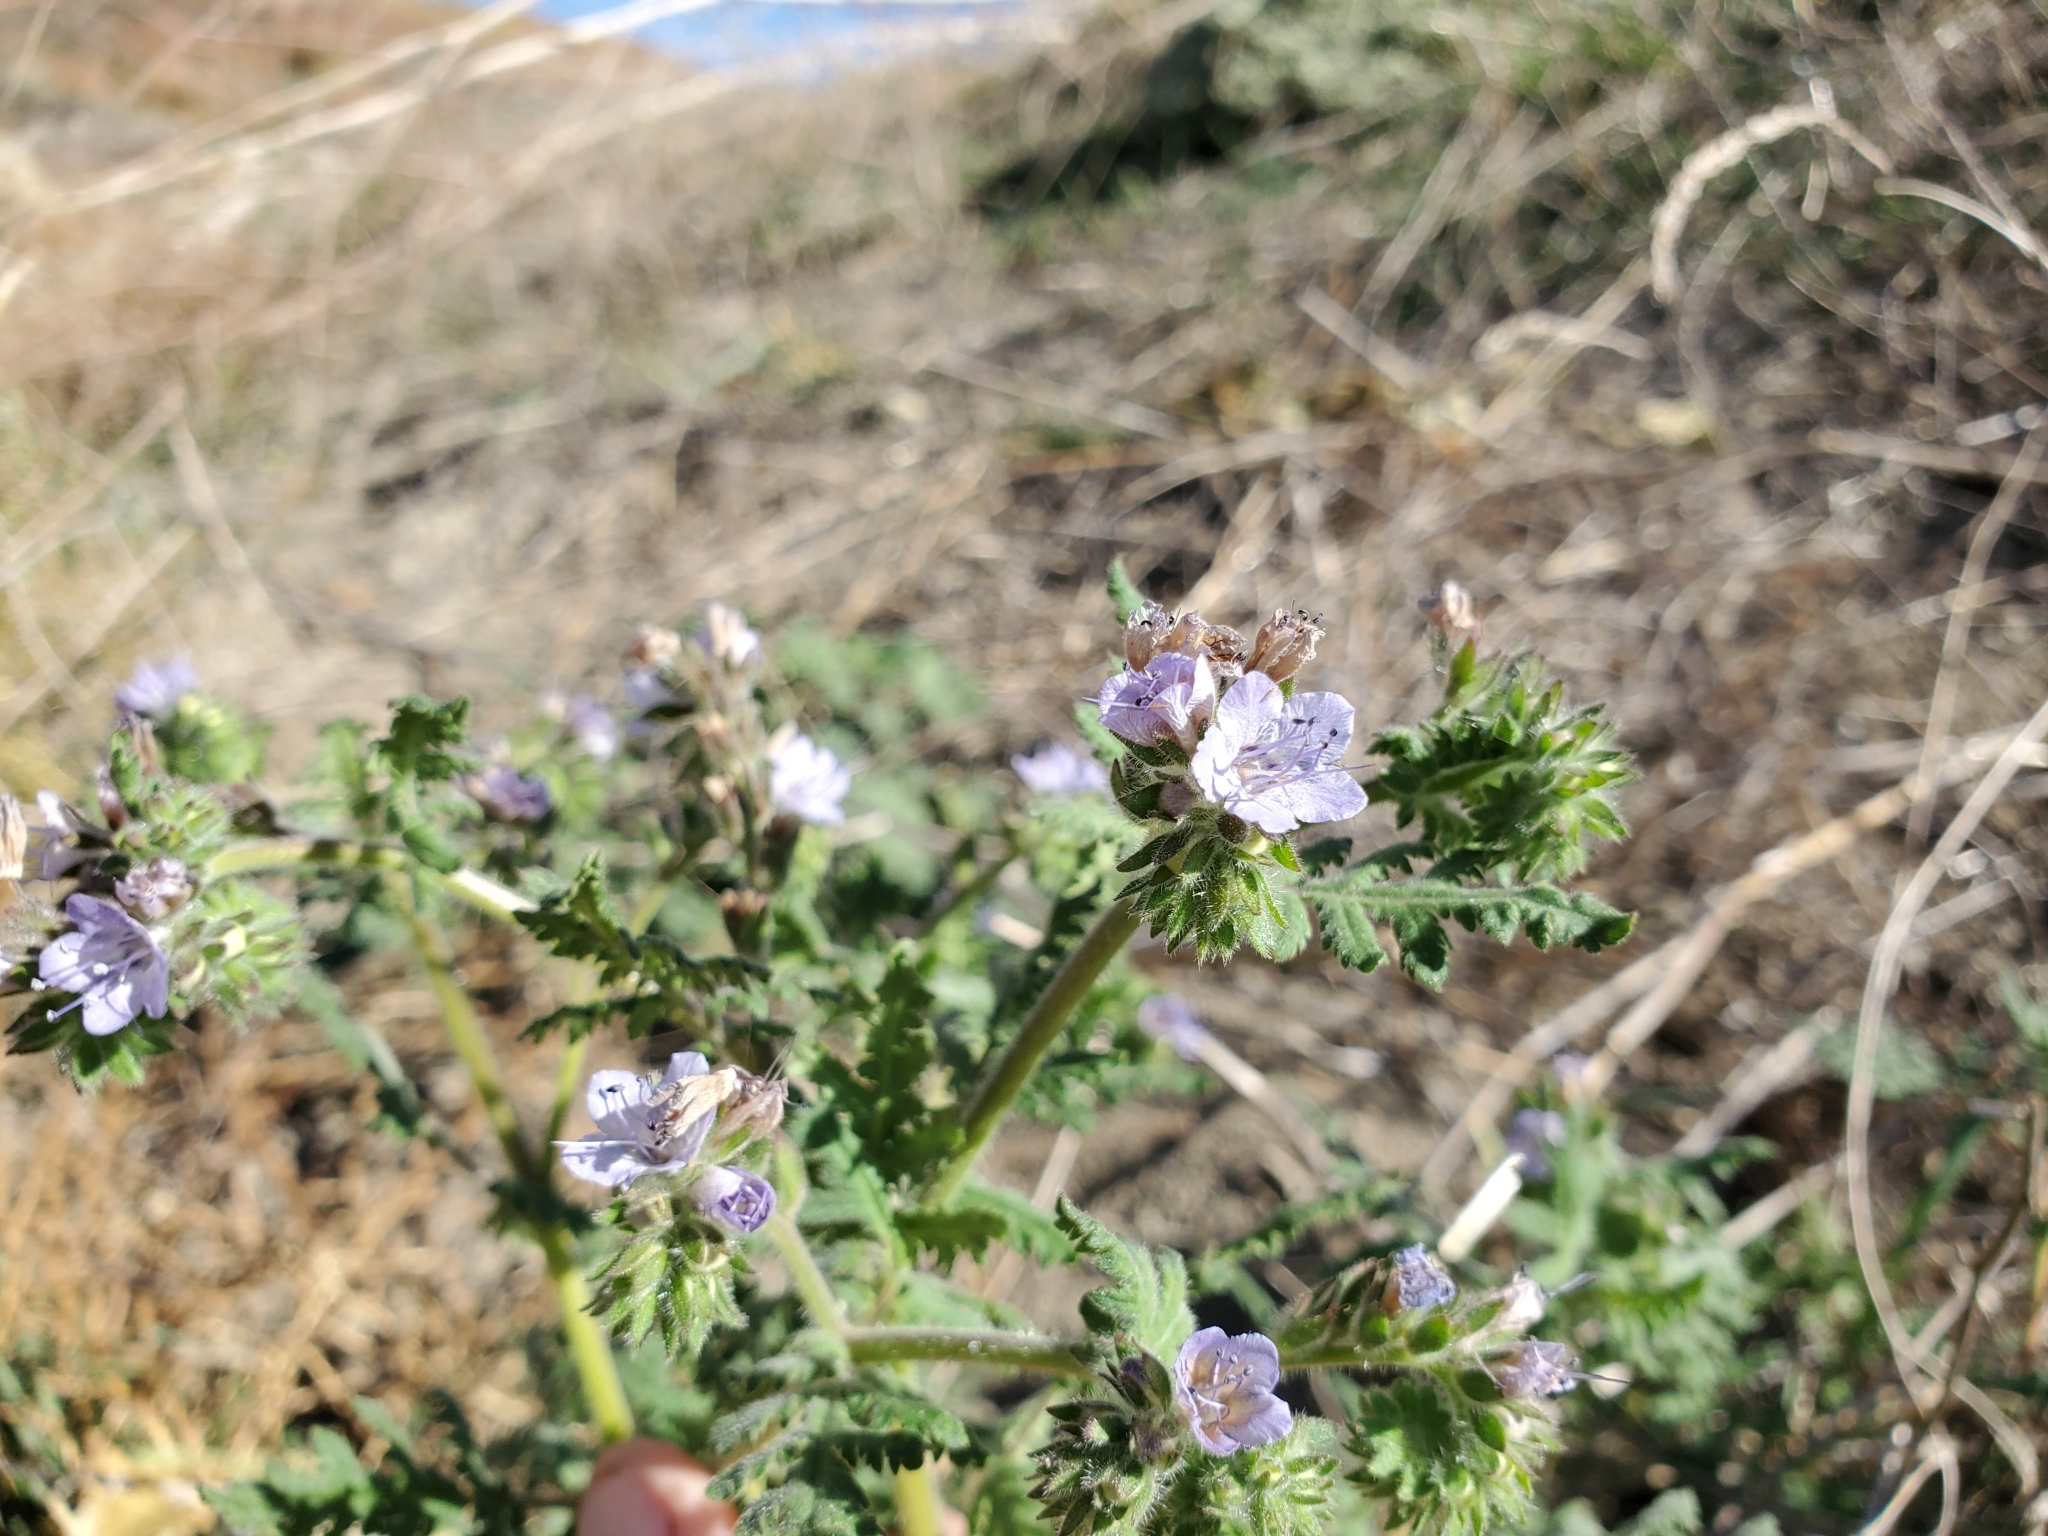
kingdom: Plantae
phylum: Tracheophyta
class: Magnoliopsida
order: Boraginales
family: Hydrophyllaceae
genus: Phacelia
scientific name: Phacelia distans
